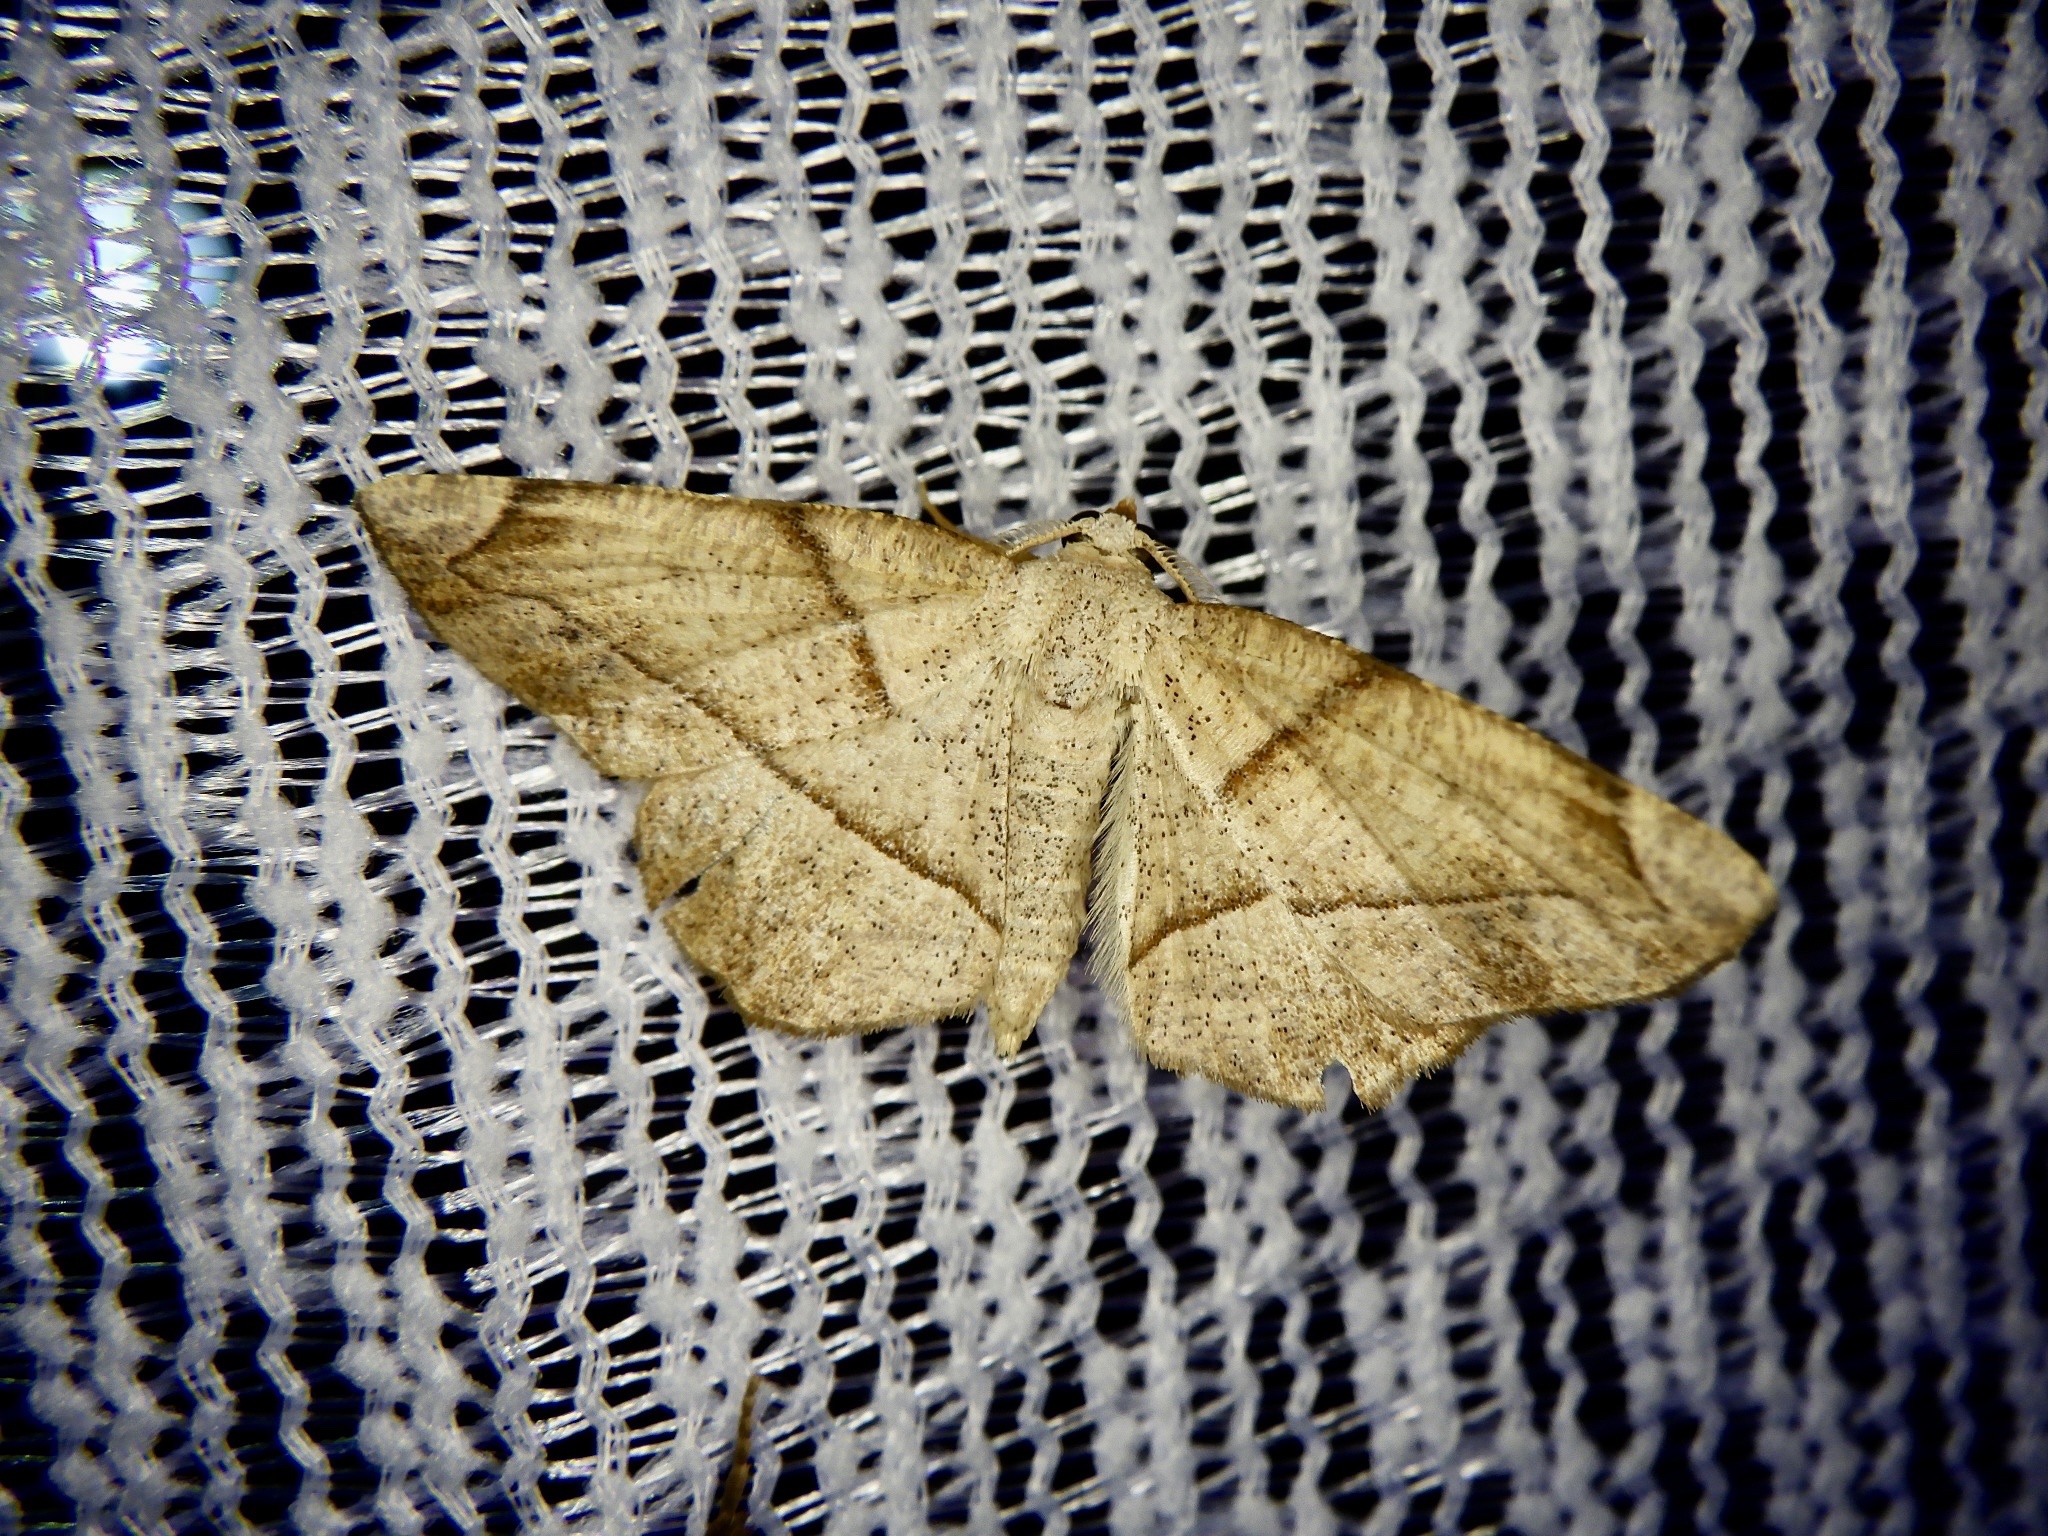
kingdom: Animalia
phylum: Arthropoda
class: Insecta
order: Lepidoptera
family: Geometridae
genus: Endropiodes
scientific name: Endropiodes indictinaria
